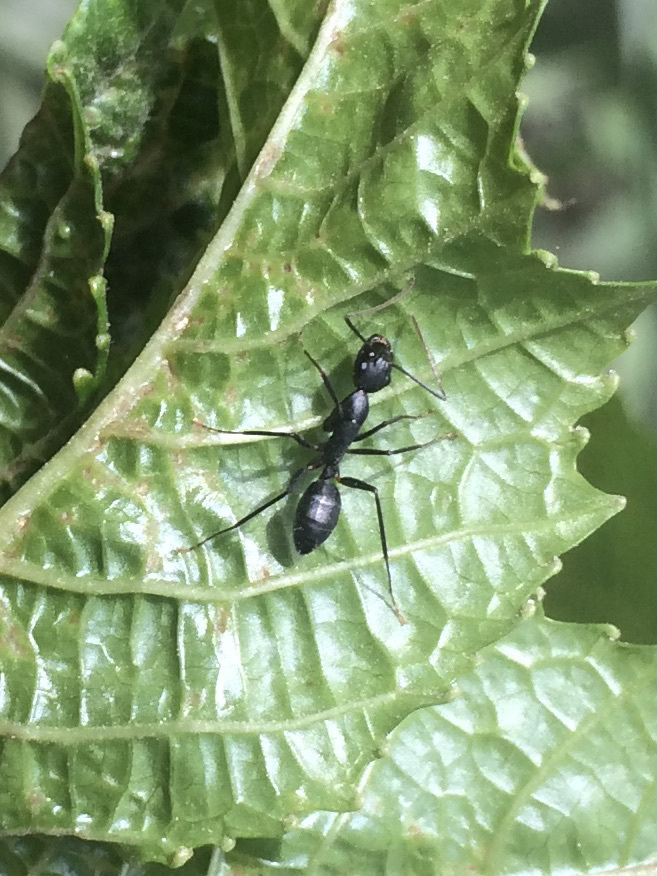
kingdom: Animalia
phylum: Arthropoda
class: Insecta
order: Hymenoptera
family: Formicidae
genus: Camponotus
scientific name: Camponotus compressus
